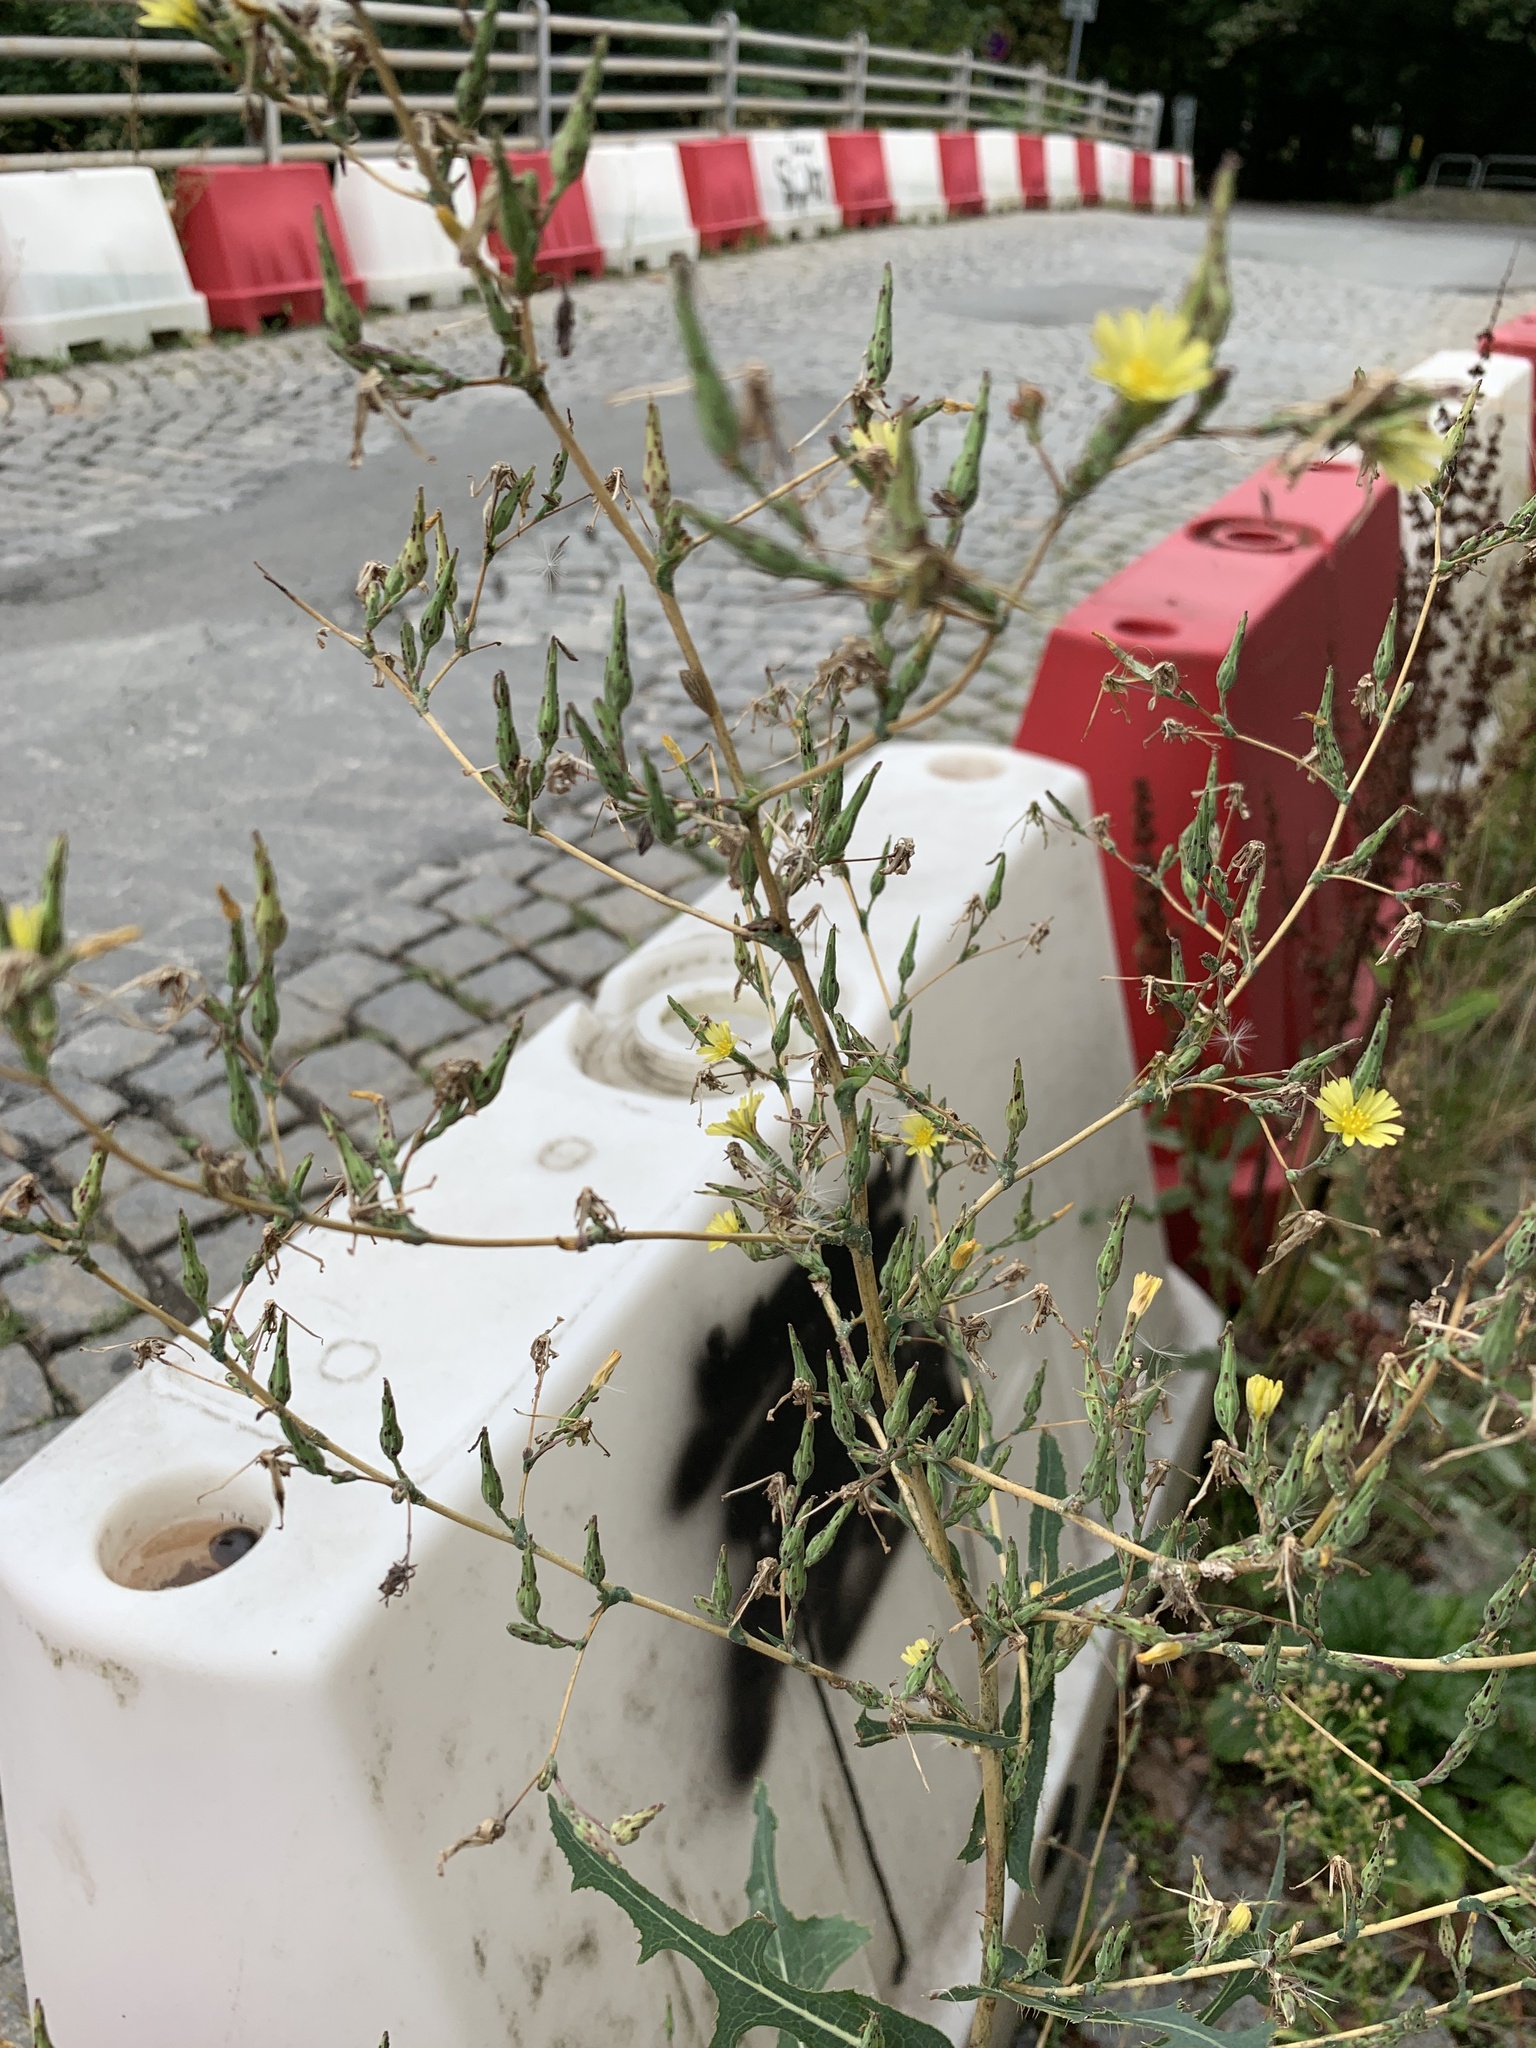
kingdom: Plantae
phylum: Tracheophyta
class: Magnoliopsida
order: Asterales
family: Asteraceae
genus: Lactuca
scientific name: Lactuca serriola
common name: Prickly lettuce
